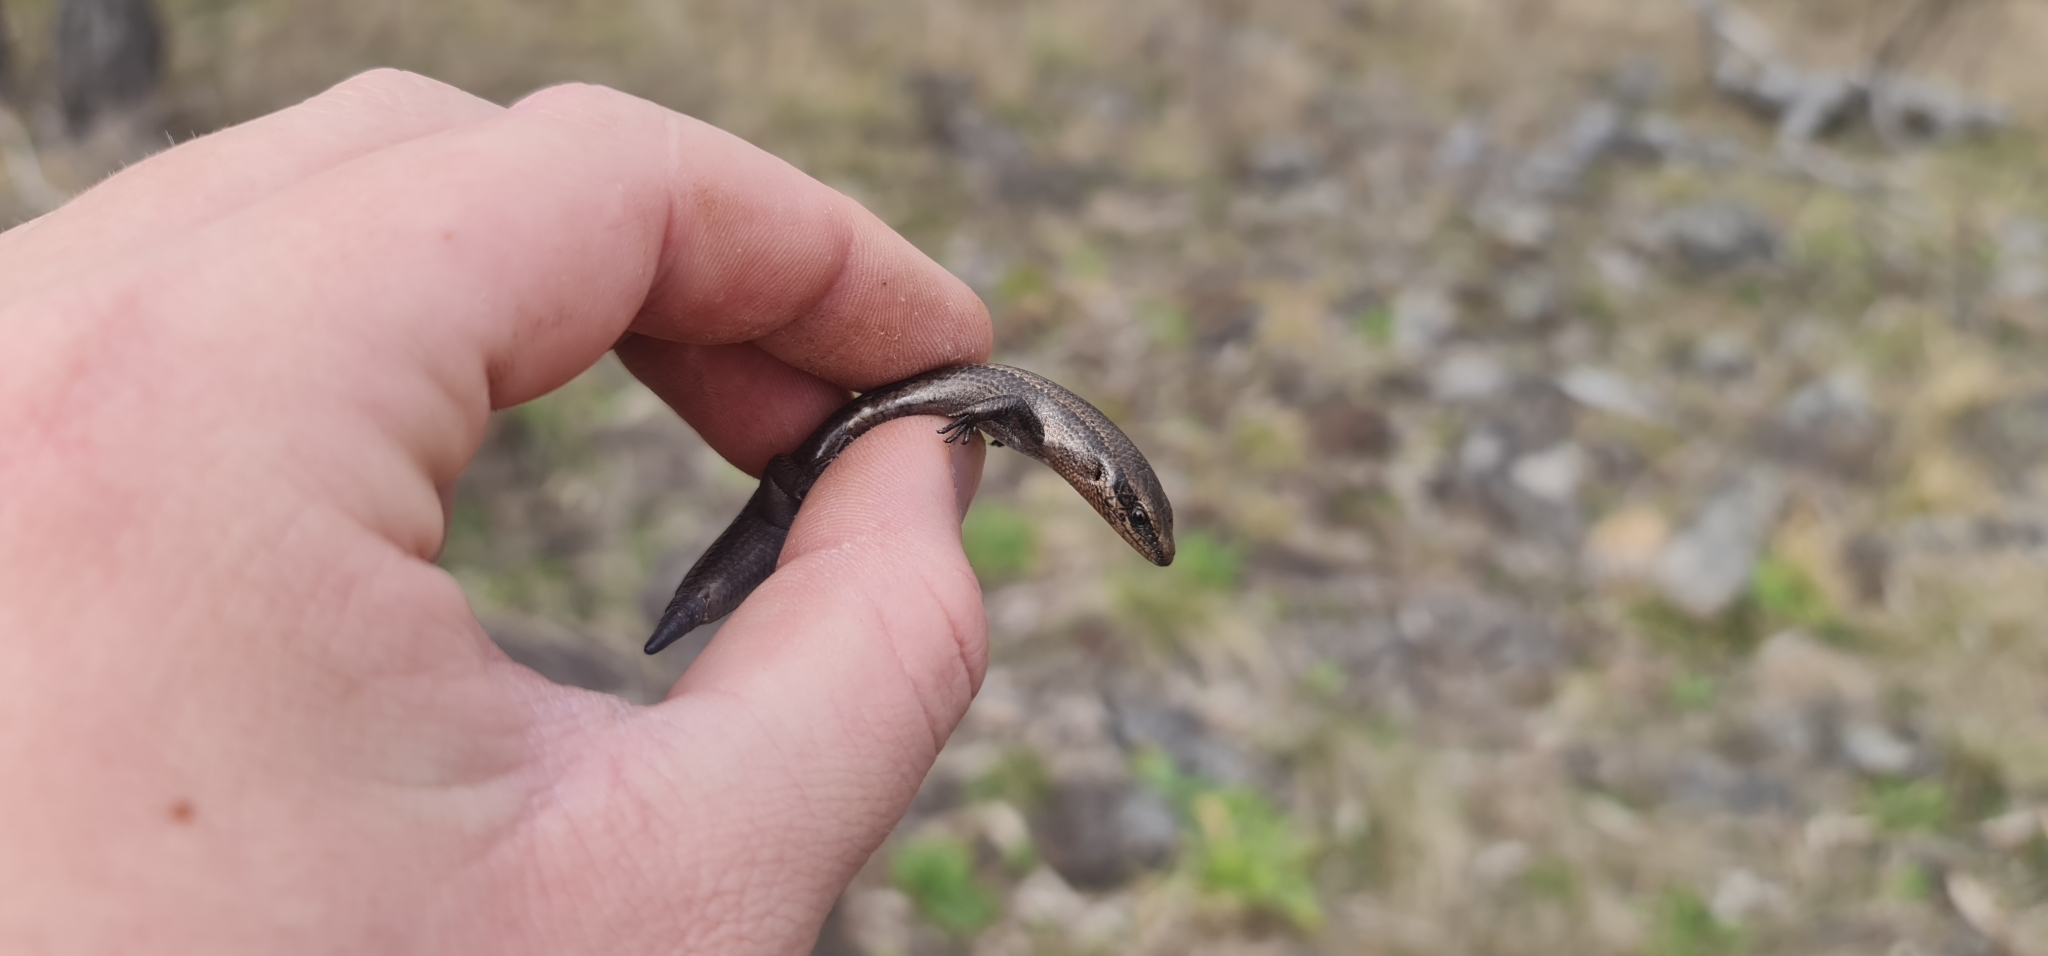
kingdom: Animalia
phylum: Chordata
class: Squamata
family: Scincidae
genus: Acritoscincus
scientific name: Acritoscincus platynotus
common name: Red-throated cool-skink
